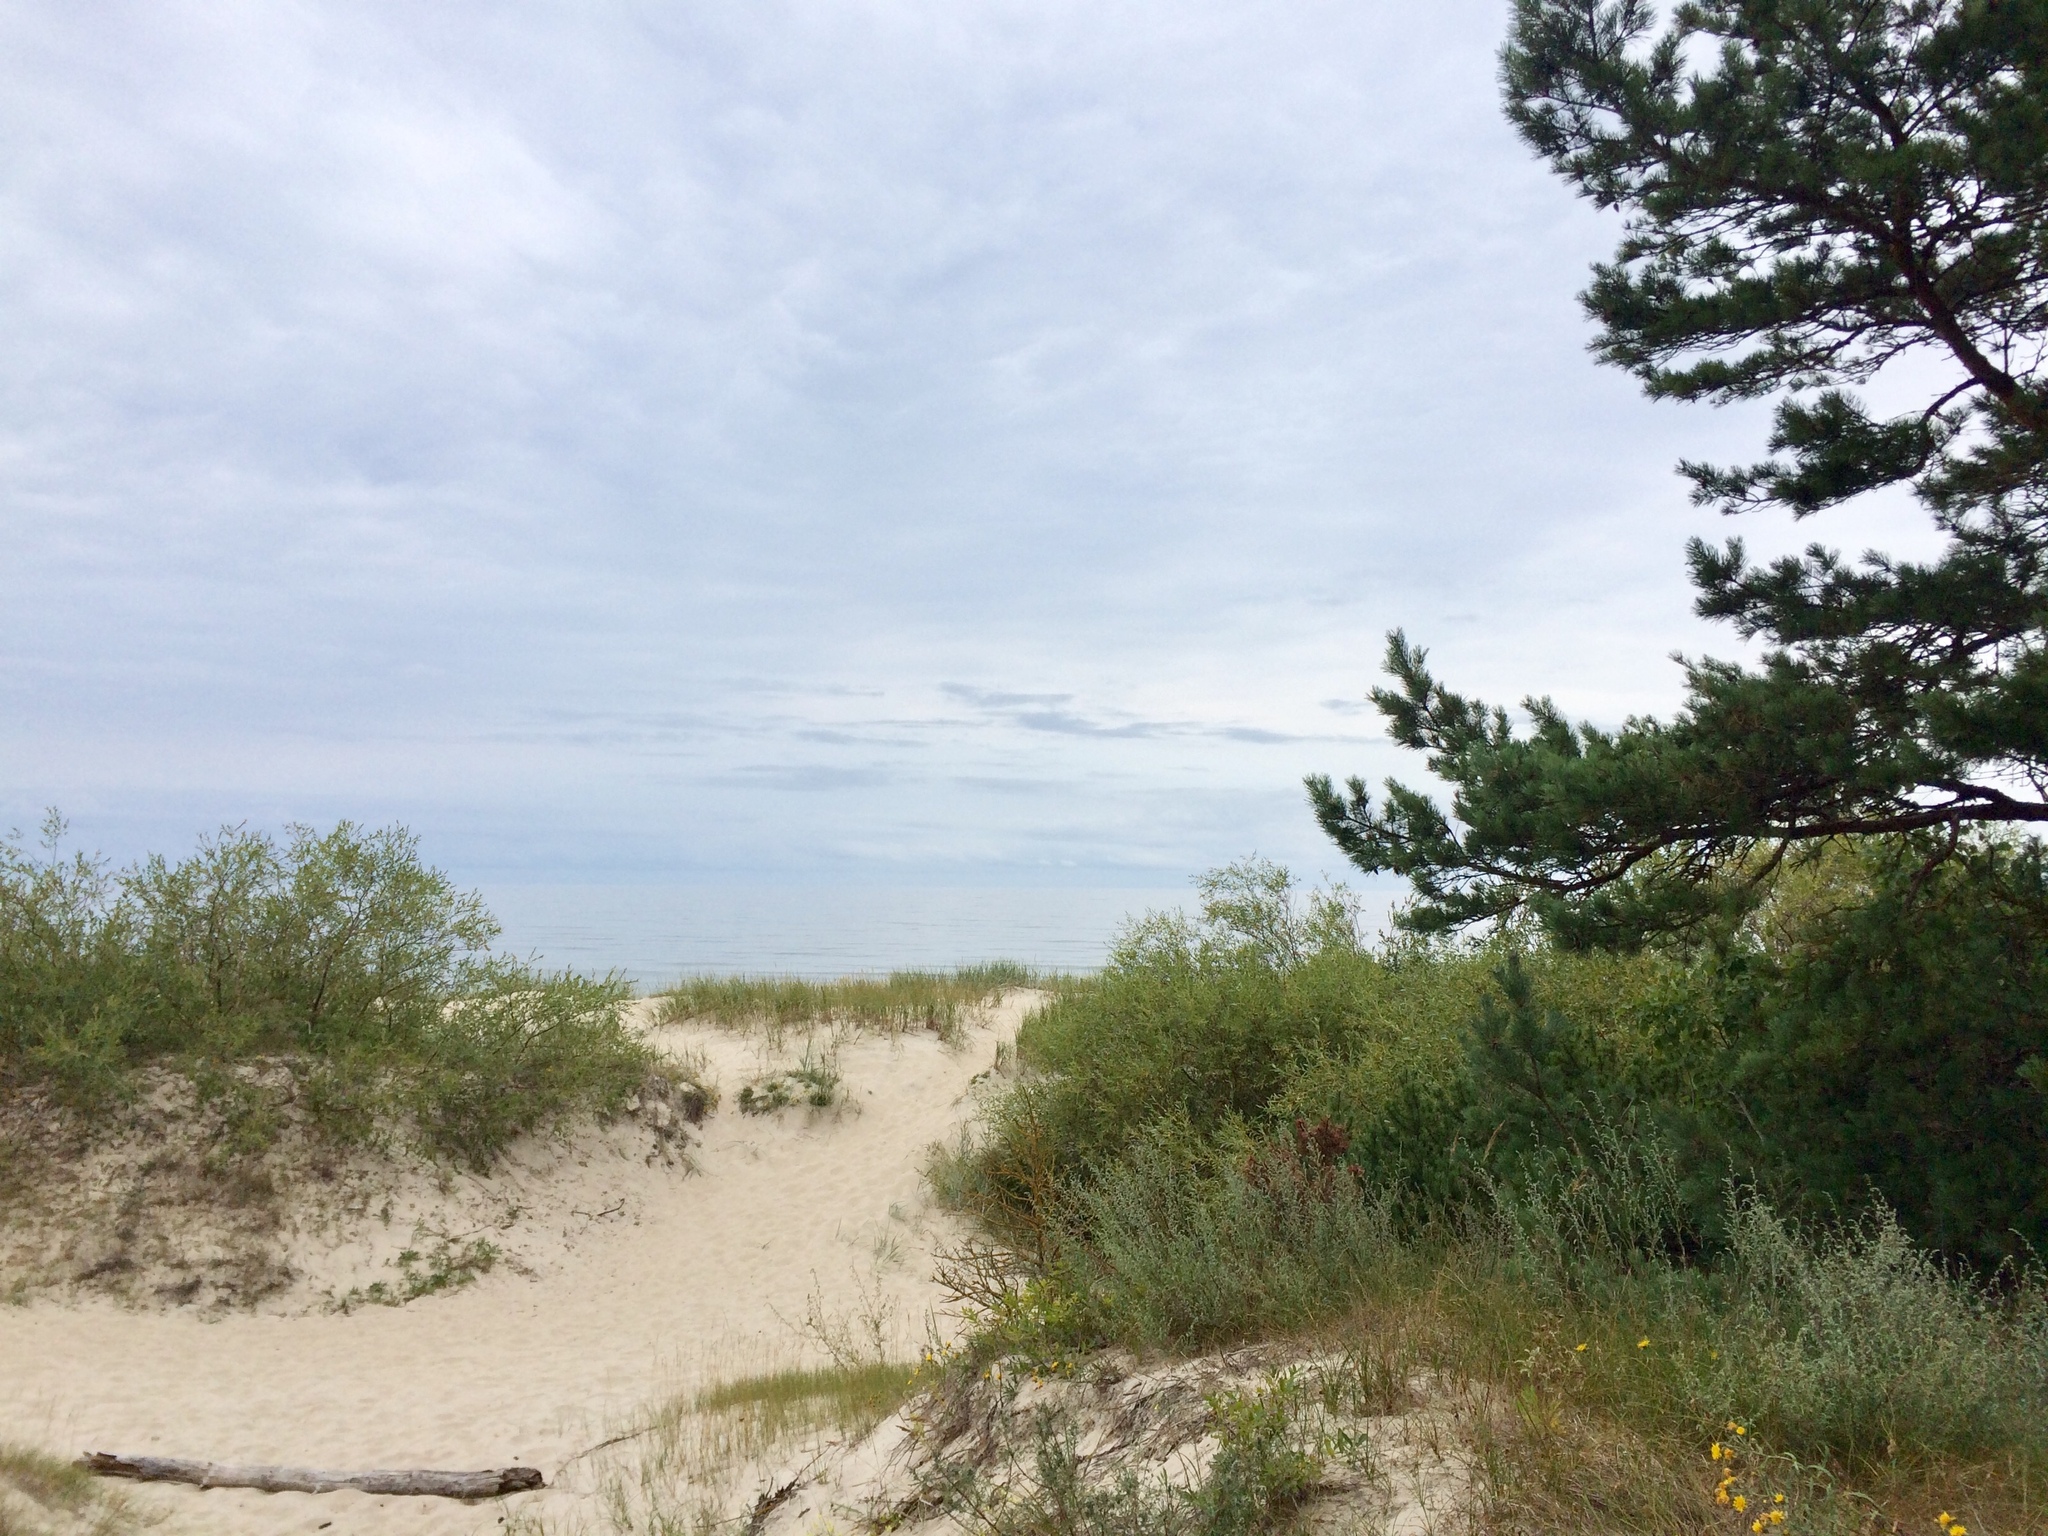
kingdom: Plantae
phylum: Tracheophyta
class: Pinopsida
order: Pinales
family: Pinaceae
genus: Pinus
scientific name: Pinus sylvestris
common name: Scots pine
